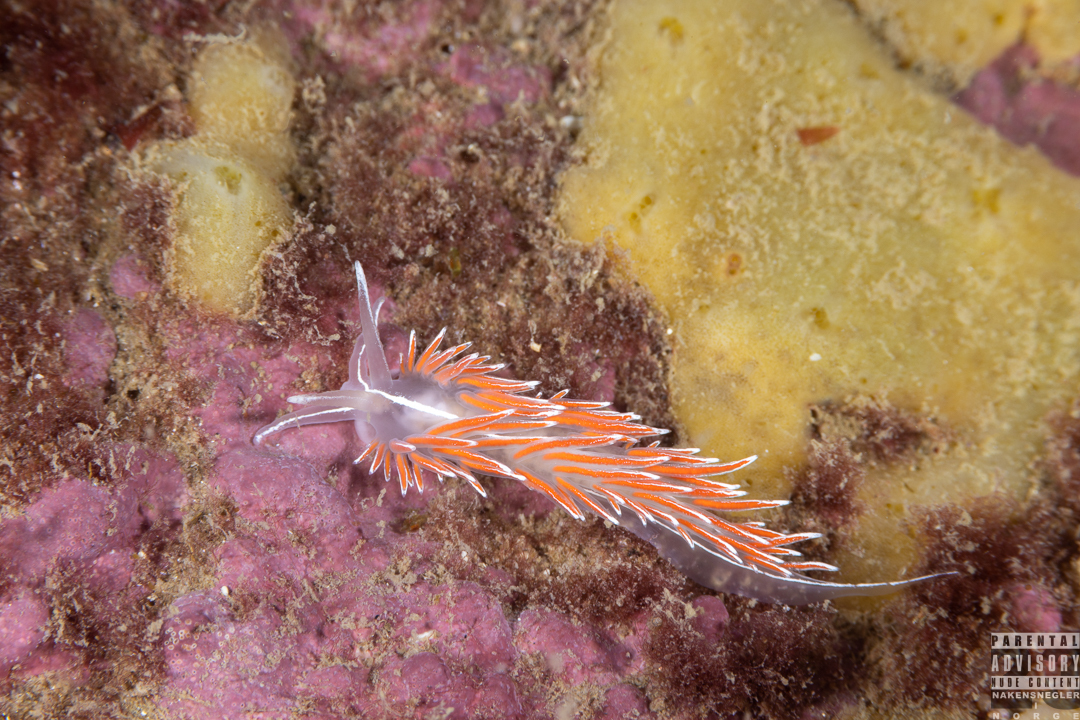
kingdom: Animalia
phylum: Mollusca
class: Gastropoda
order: Nudibranchia
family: Coryphellidae
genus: Coryphella
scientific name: Coryphella lineata
